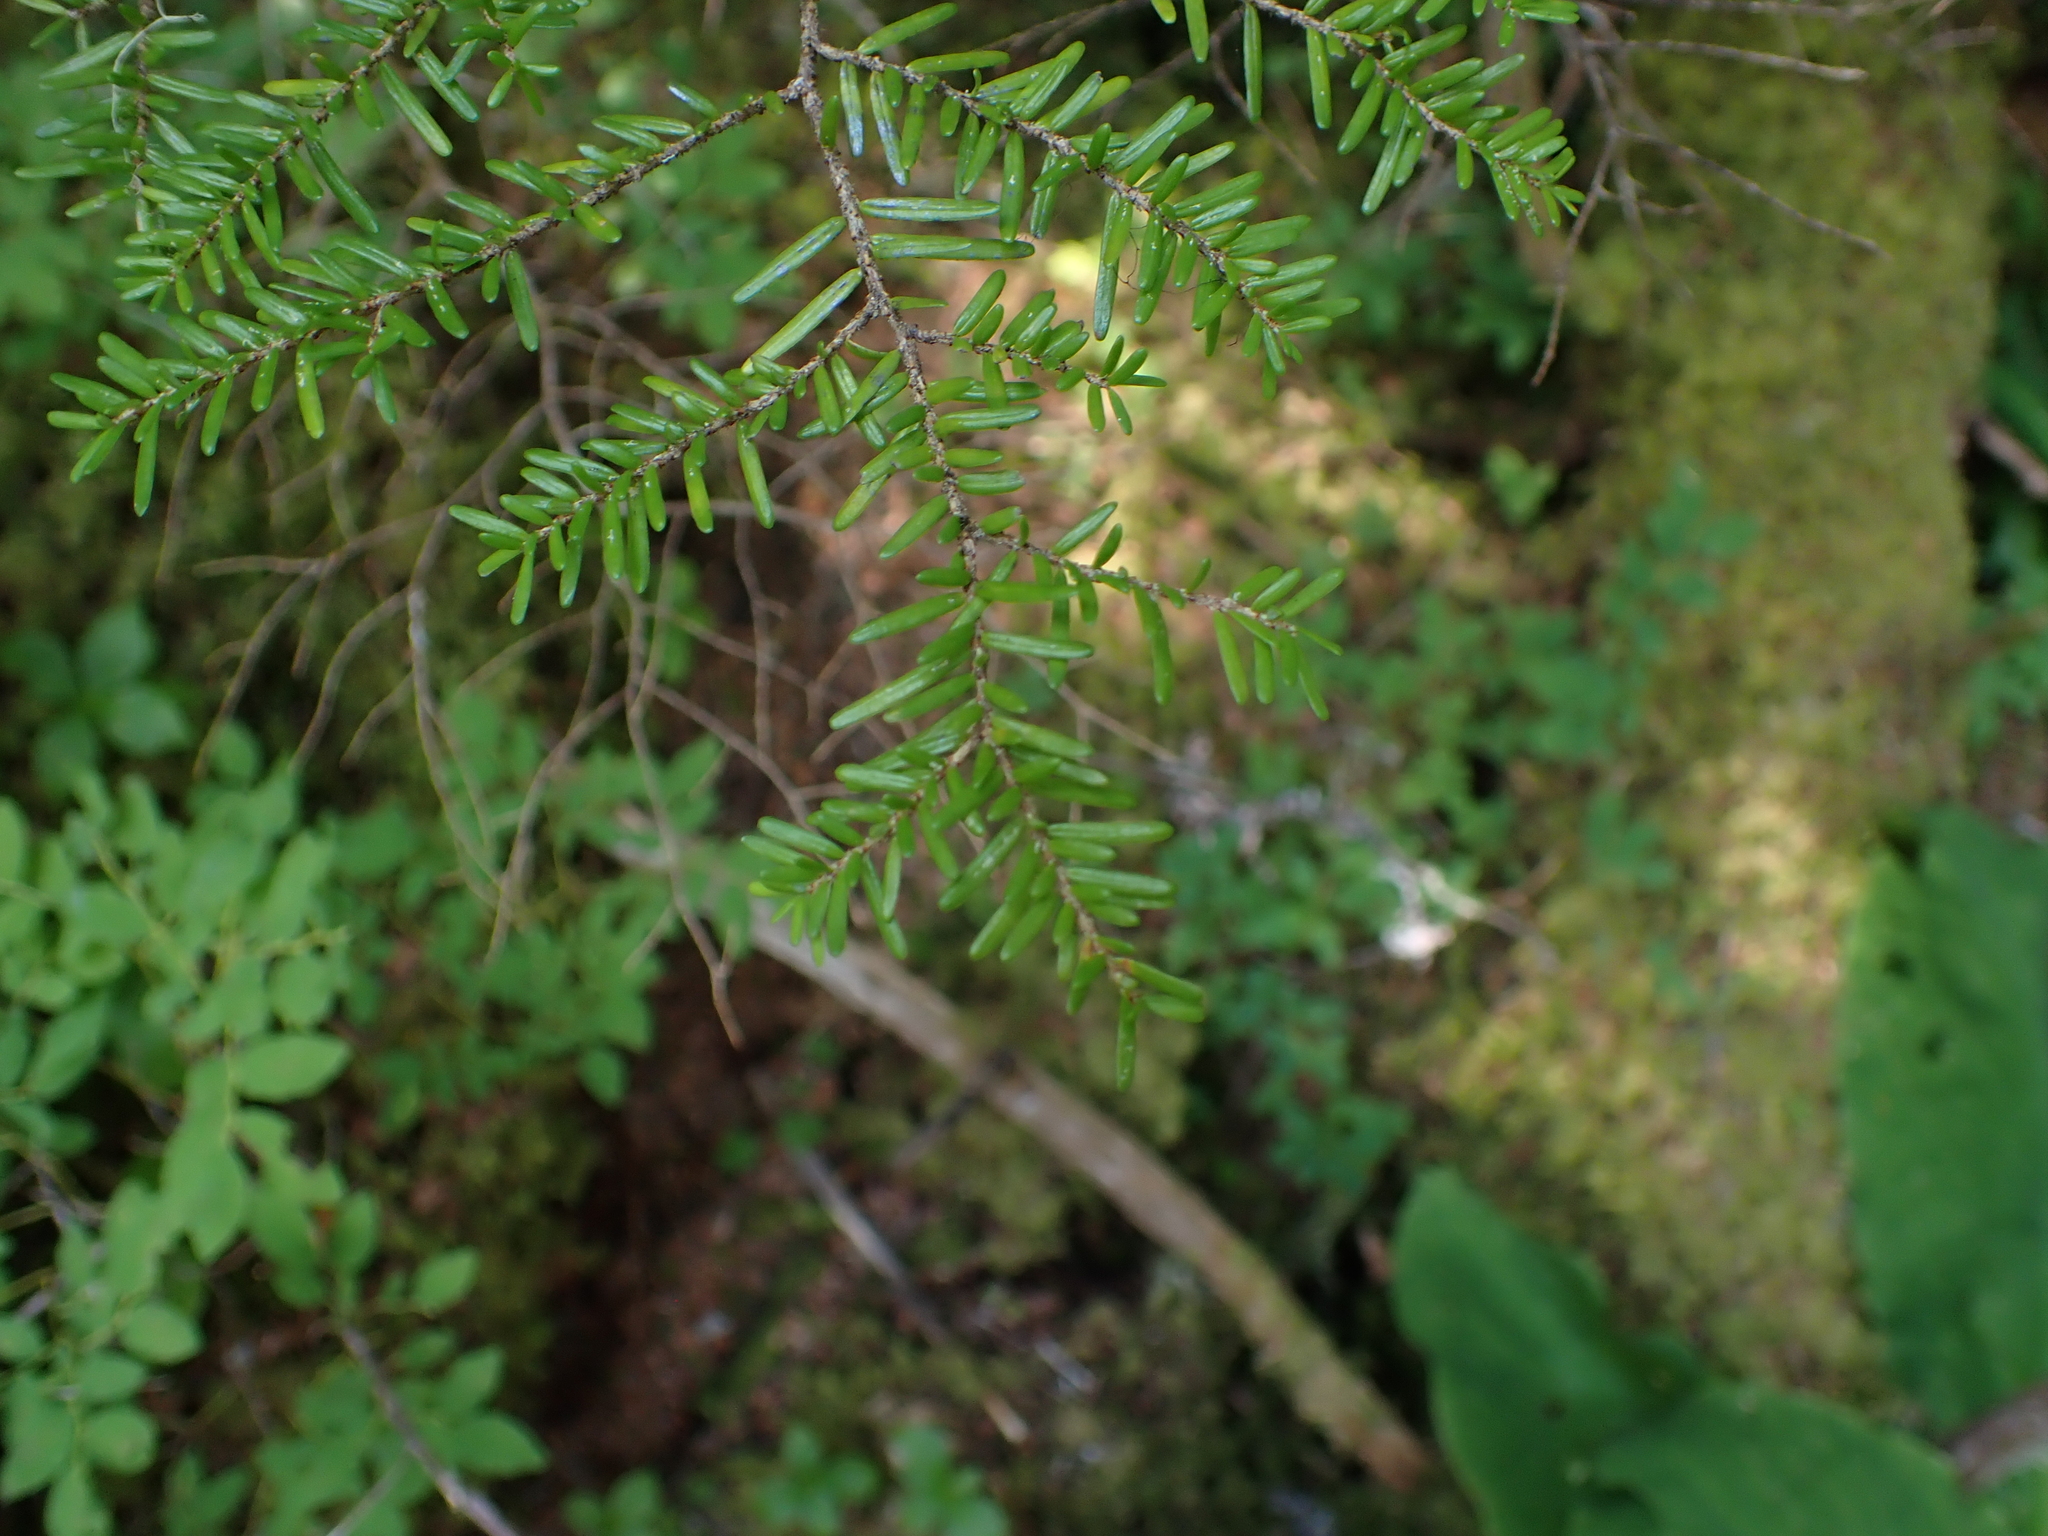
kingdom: Plantae
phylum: Tracheophyta
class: Pinopsida
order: Pinales
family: Pinaceae
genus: Tsuga
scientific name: Tsuga heterophylla
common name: Western hemlock
